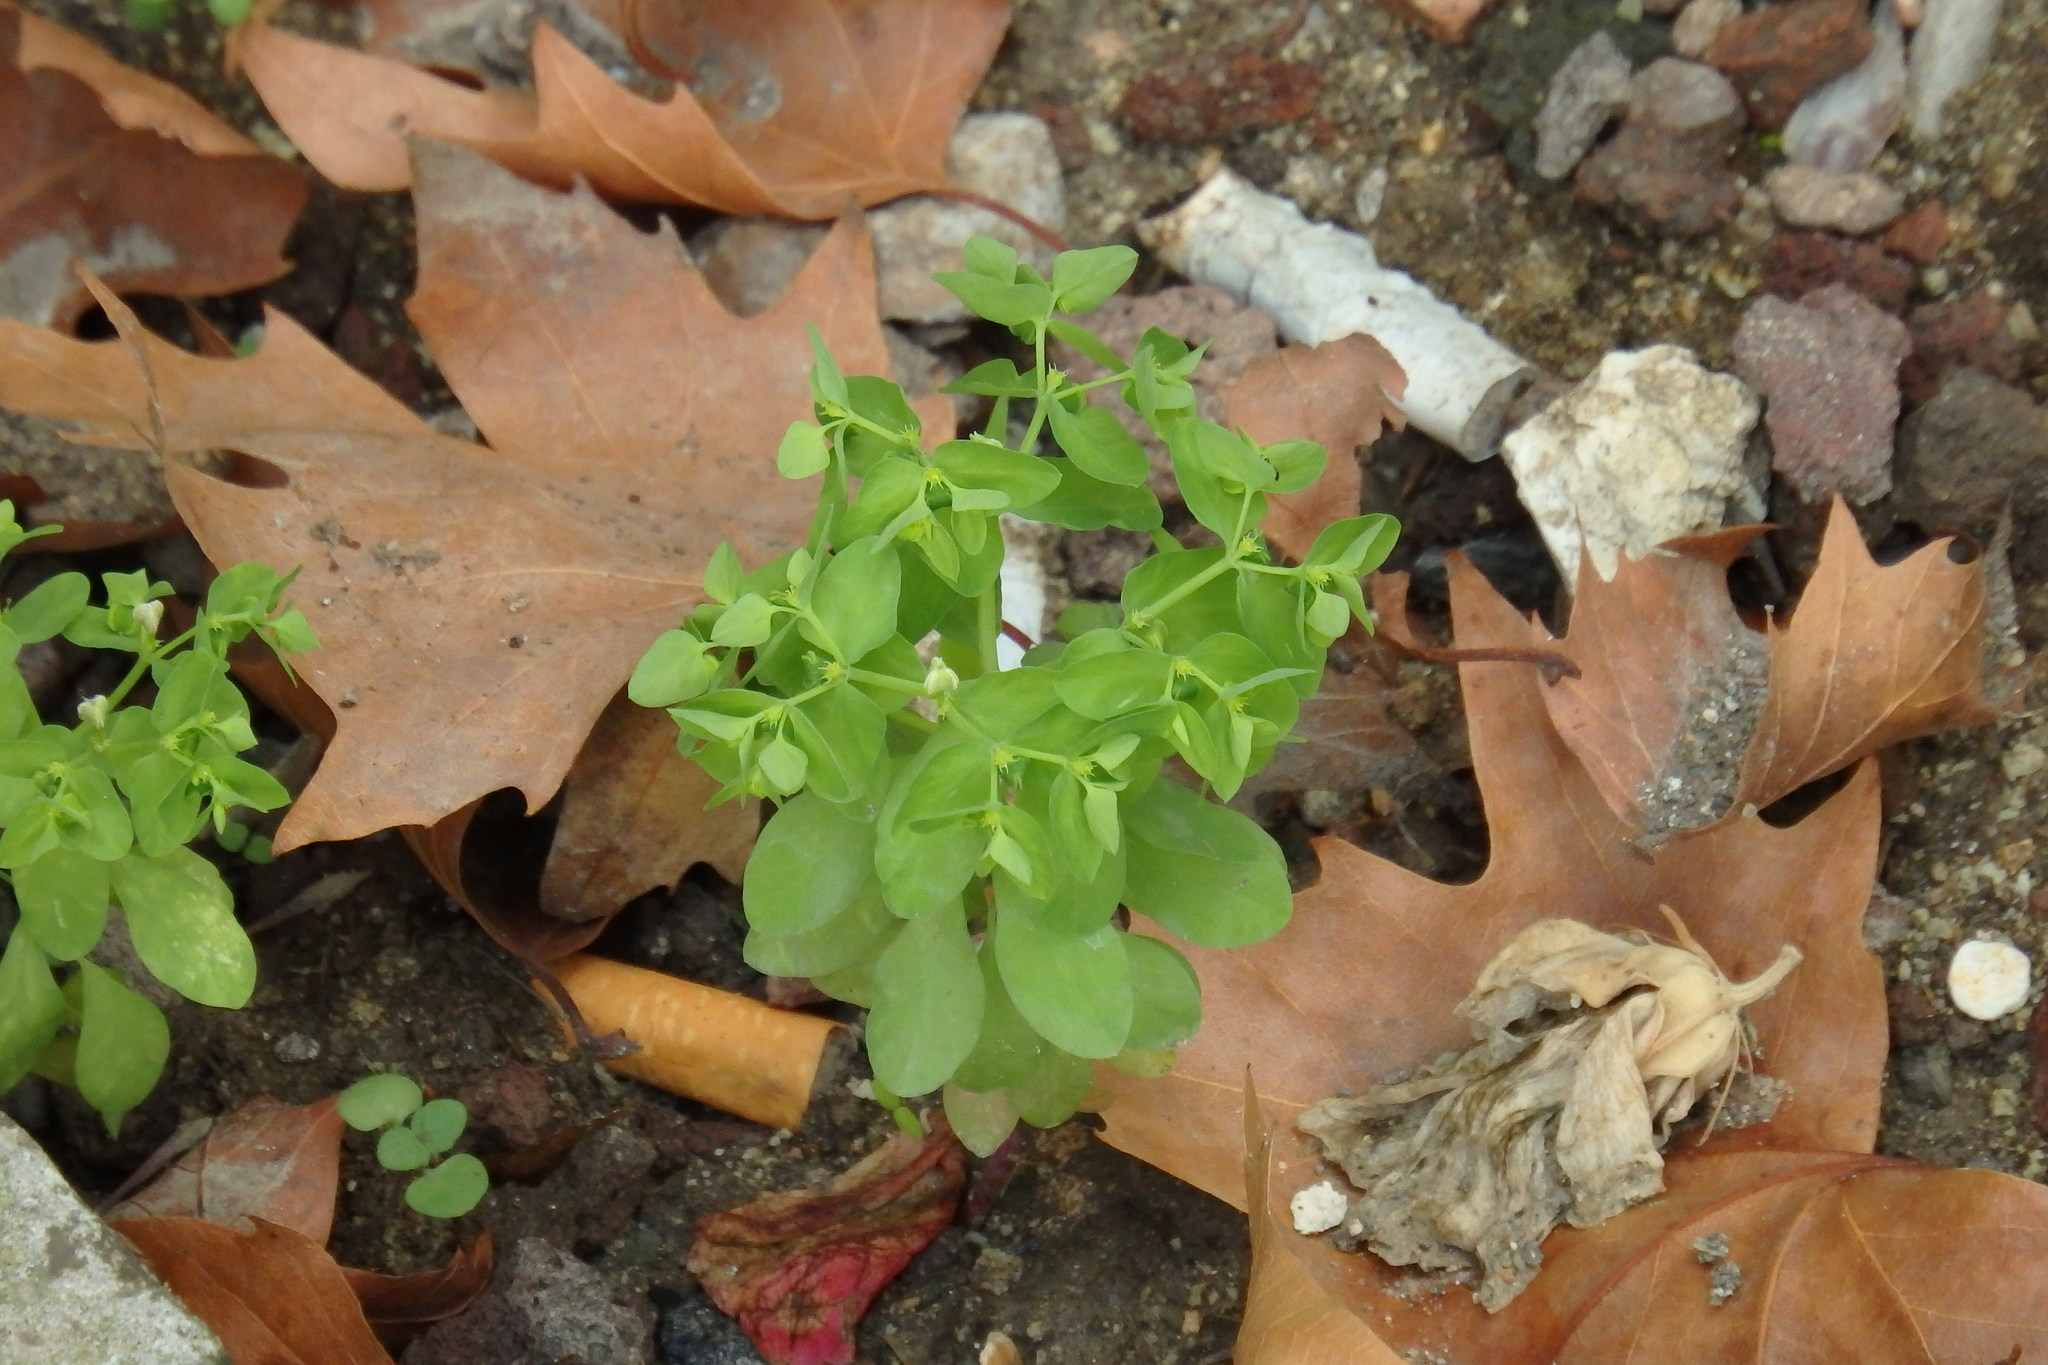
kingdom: Plantae
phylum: Tracheophyta
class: Magnoliopsida
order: Malpighiales
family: Euphorbiaceae
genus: Euphorbia
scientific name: Euphorbia peplus
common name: Petty spurge
